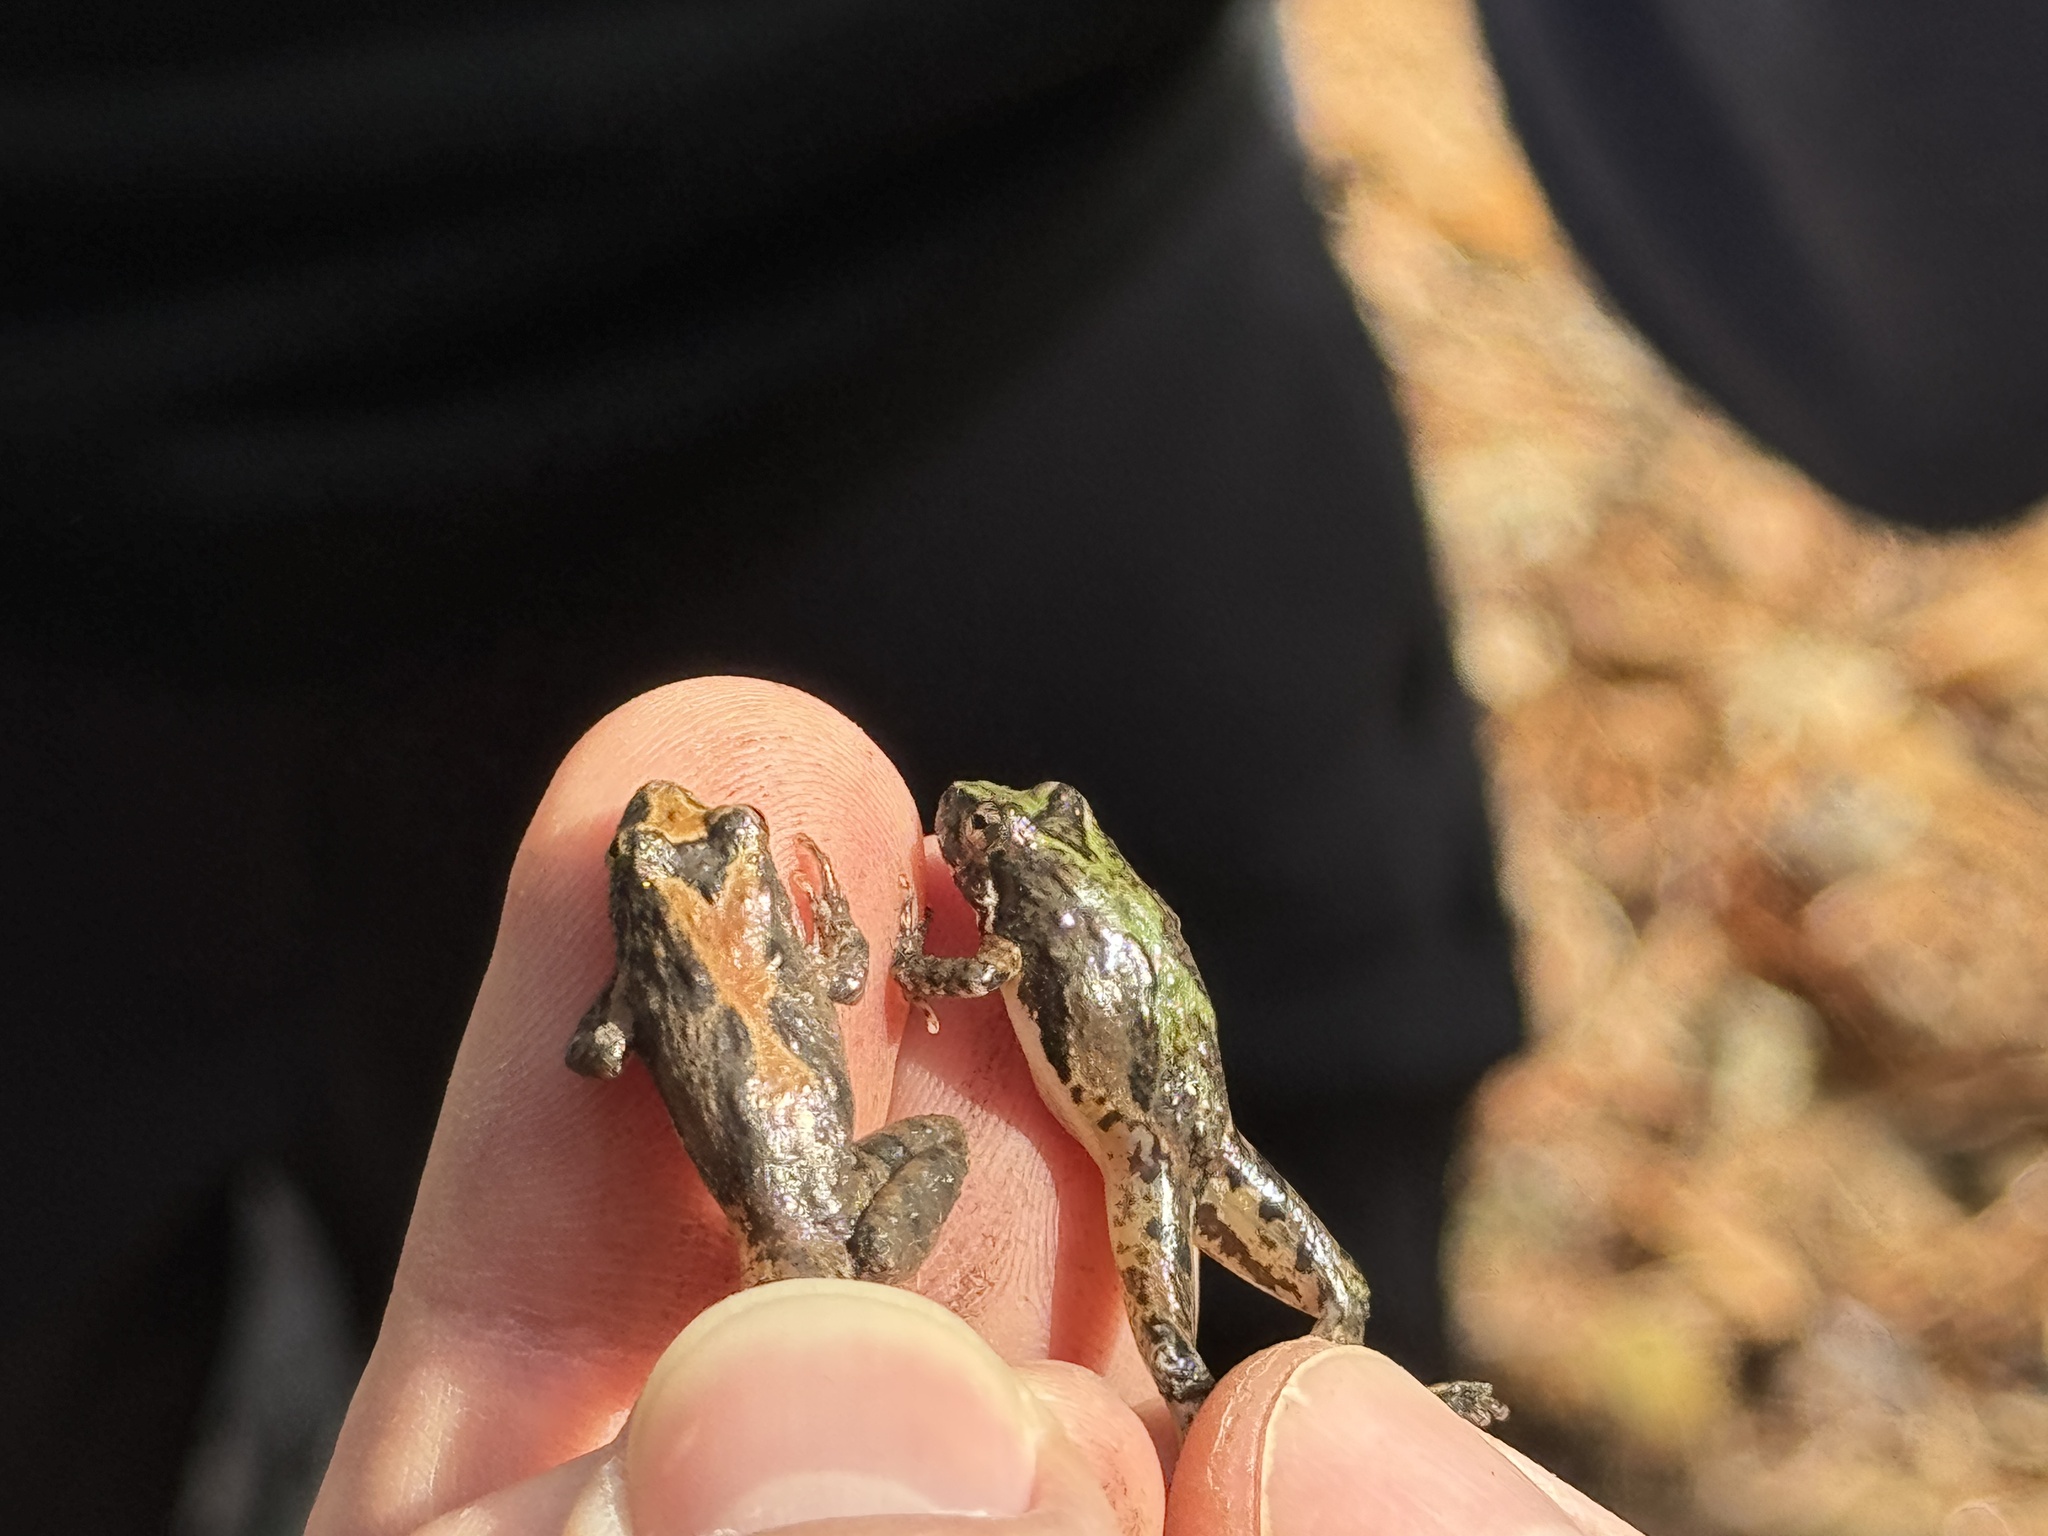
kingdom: Animalia
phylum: Chordata
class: Amphibia
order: Anura
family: Hylidae
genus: Acris
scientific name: Acris blanchardi
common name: Blanchard's cricket frog
